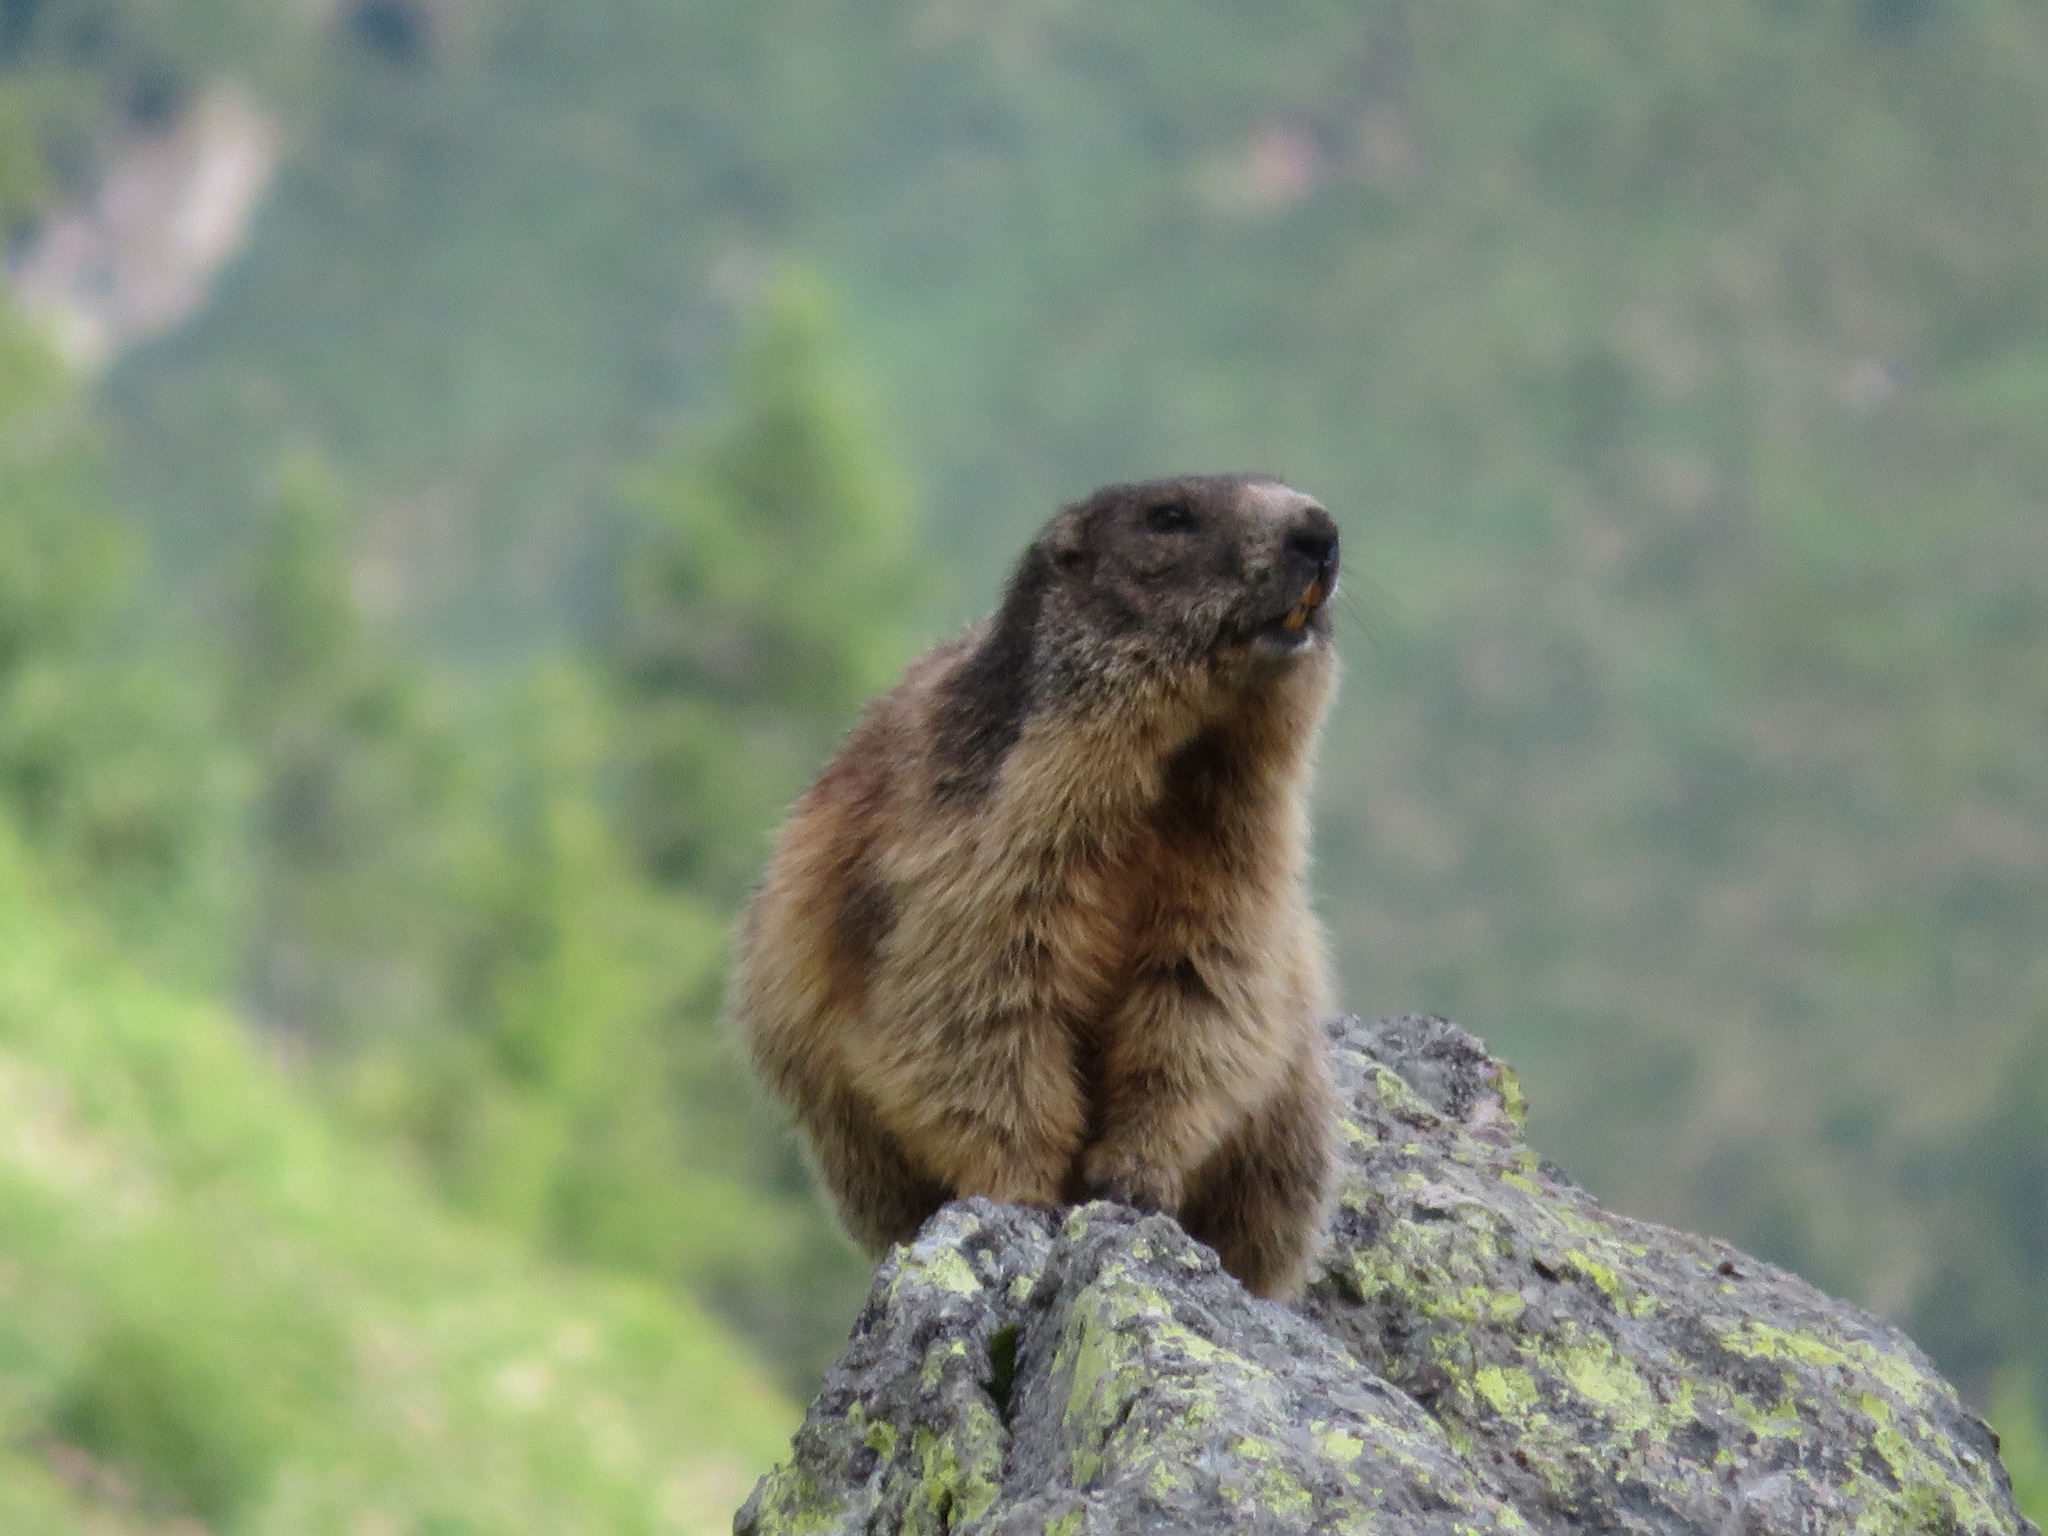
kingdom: Animalia
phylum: Chordata
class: Mammalia
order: Rodentia
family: Sciuridae
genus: Marmota
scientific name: Marmota marmota
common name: Alpine marmot
